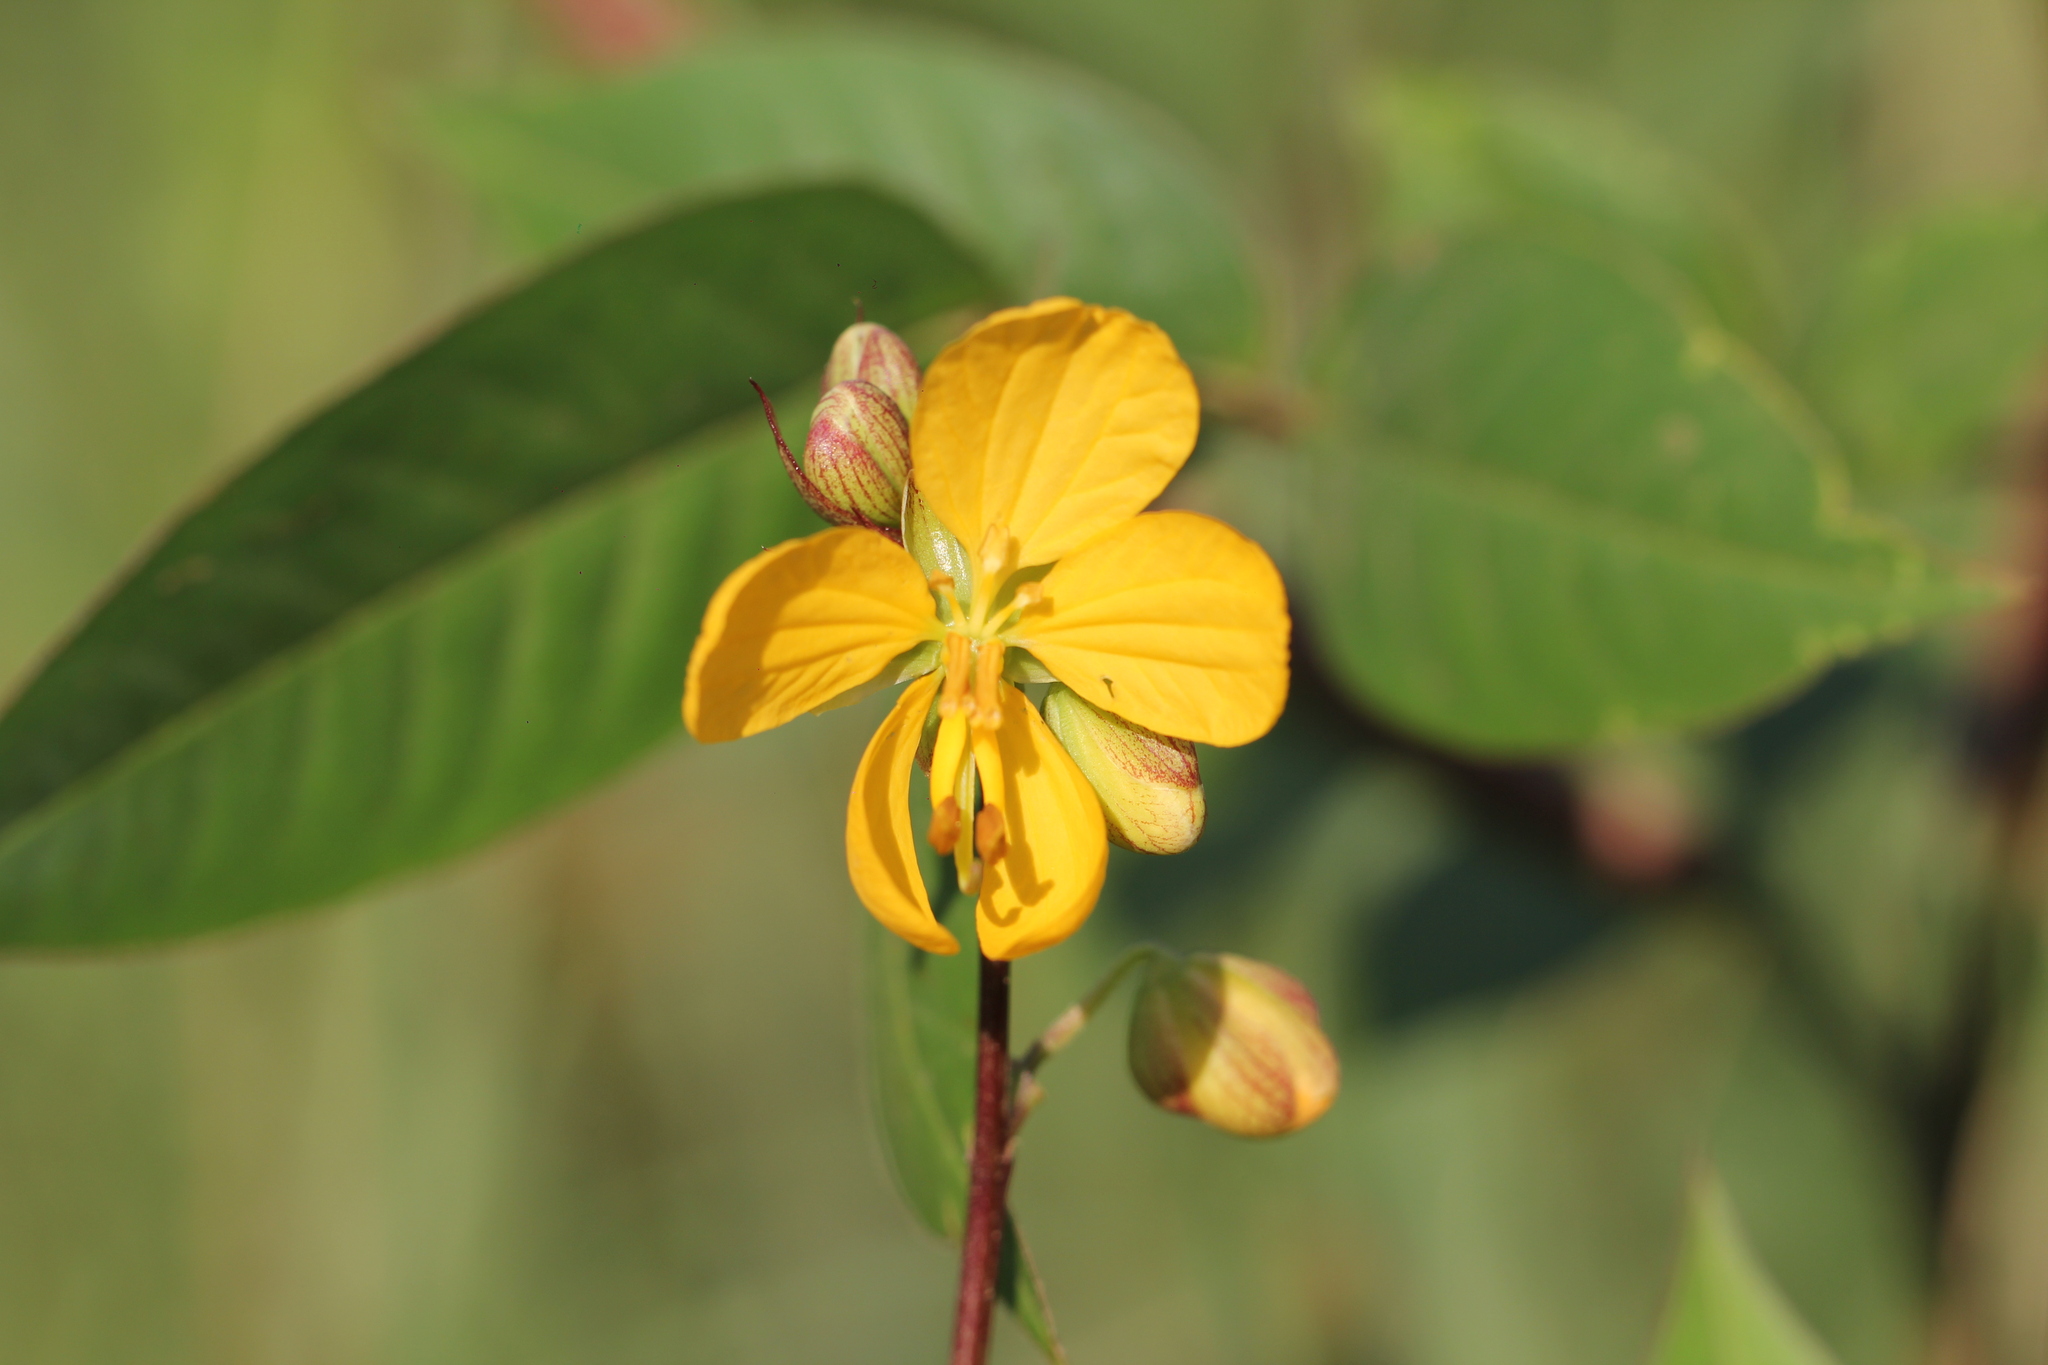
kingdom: Plantae
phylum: Tracheophyta
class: Magnoliopsida
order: Fabales
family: Fabaceae
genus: Senna
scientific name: Senna occidentalis
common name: Septicweed
